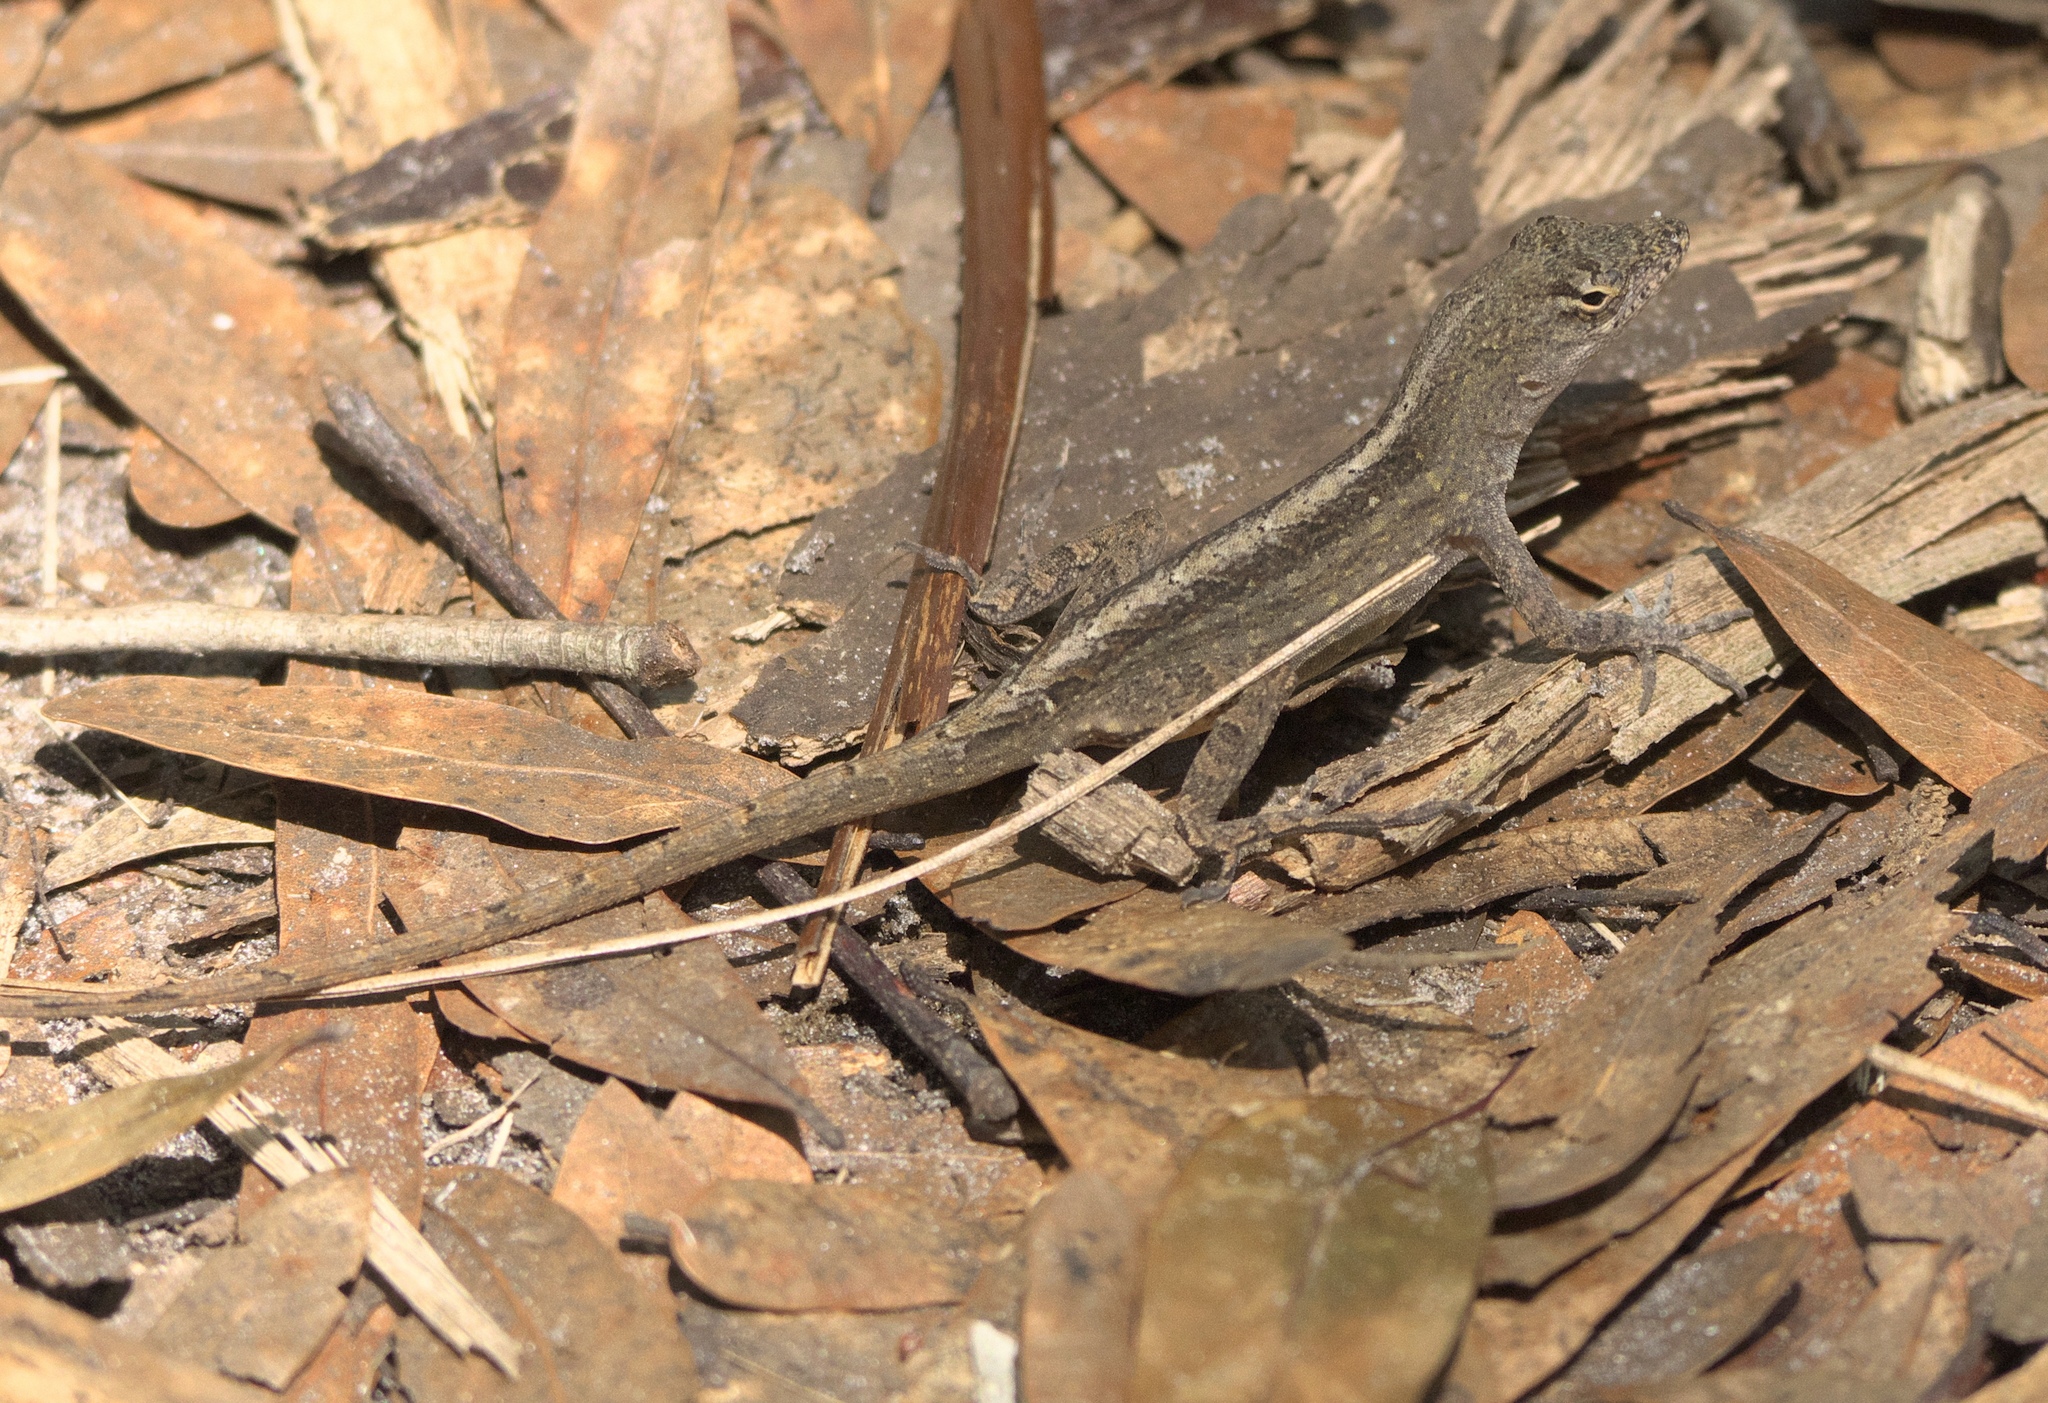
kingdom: Animalia
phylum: Chordata
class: Squamata
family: Dactyloidae
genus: Anolis
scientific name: Anolis sagrei
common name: Brown anole
